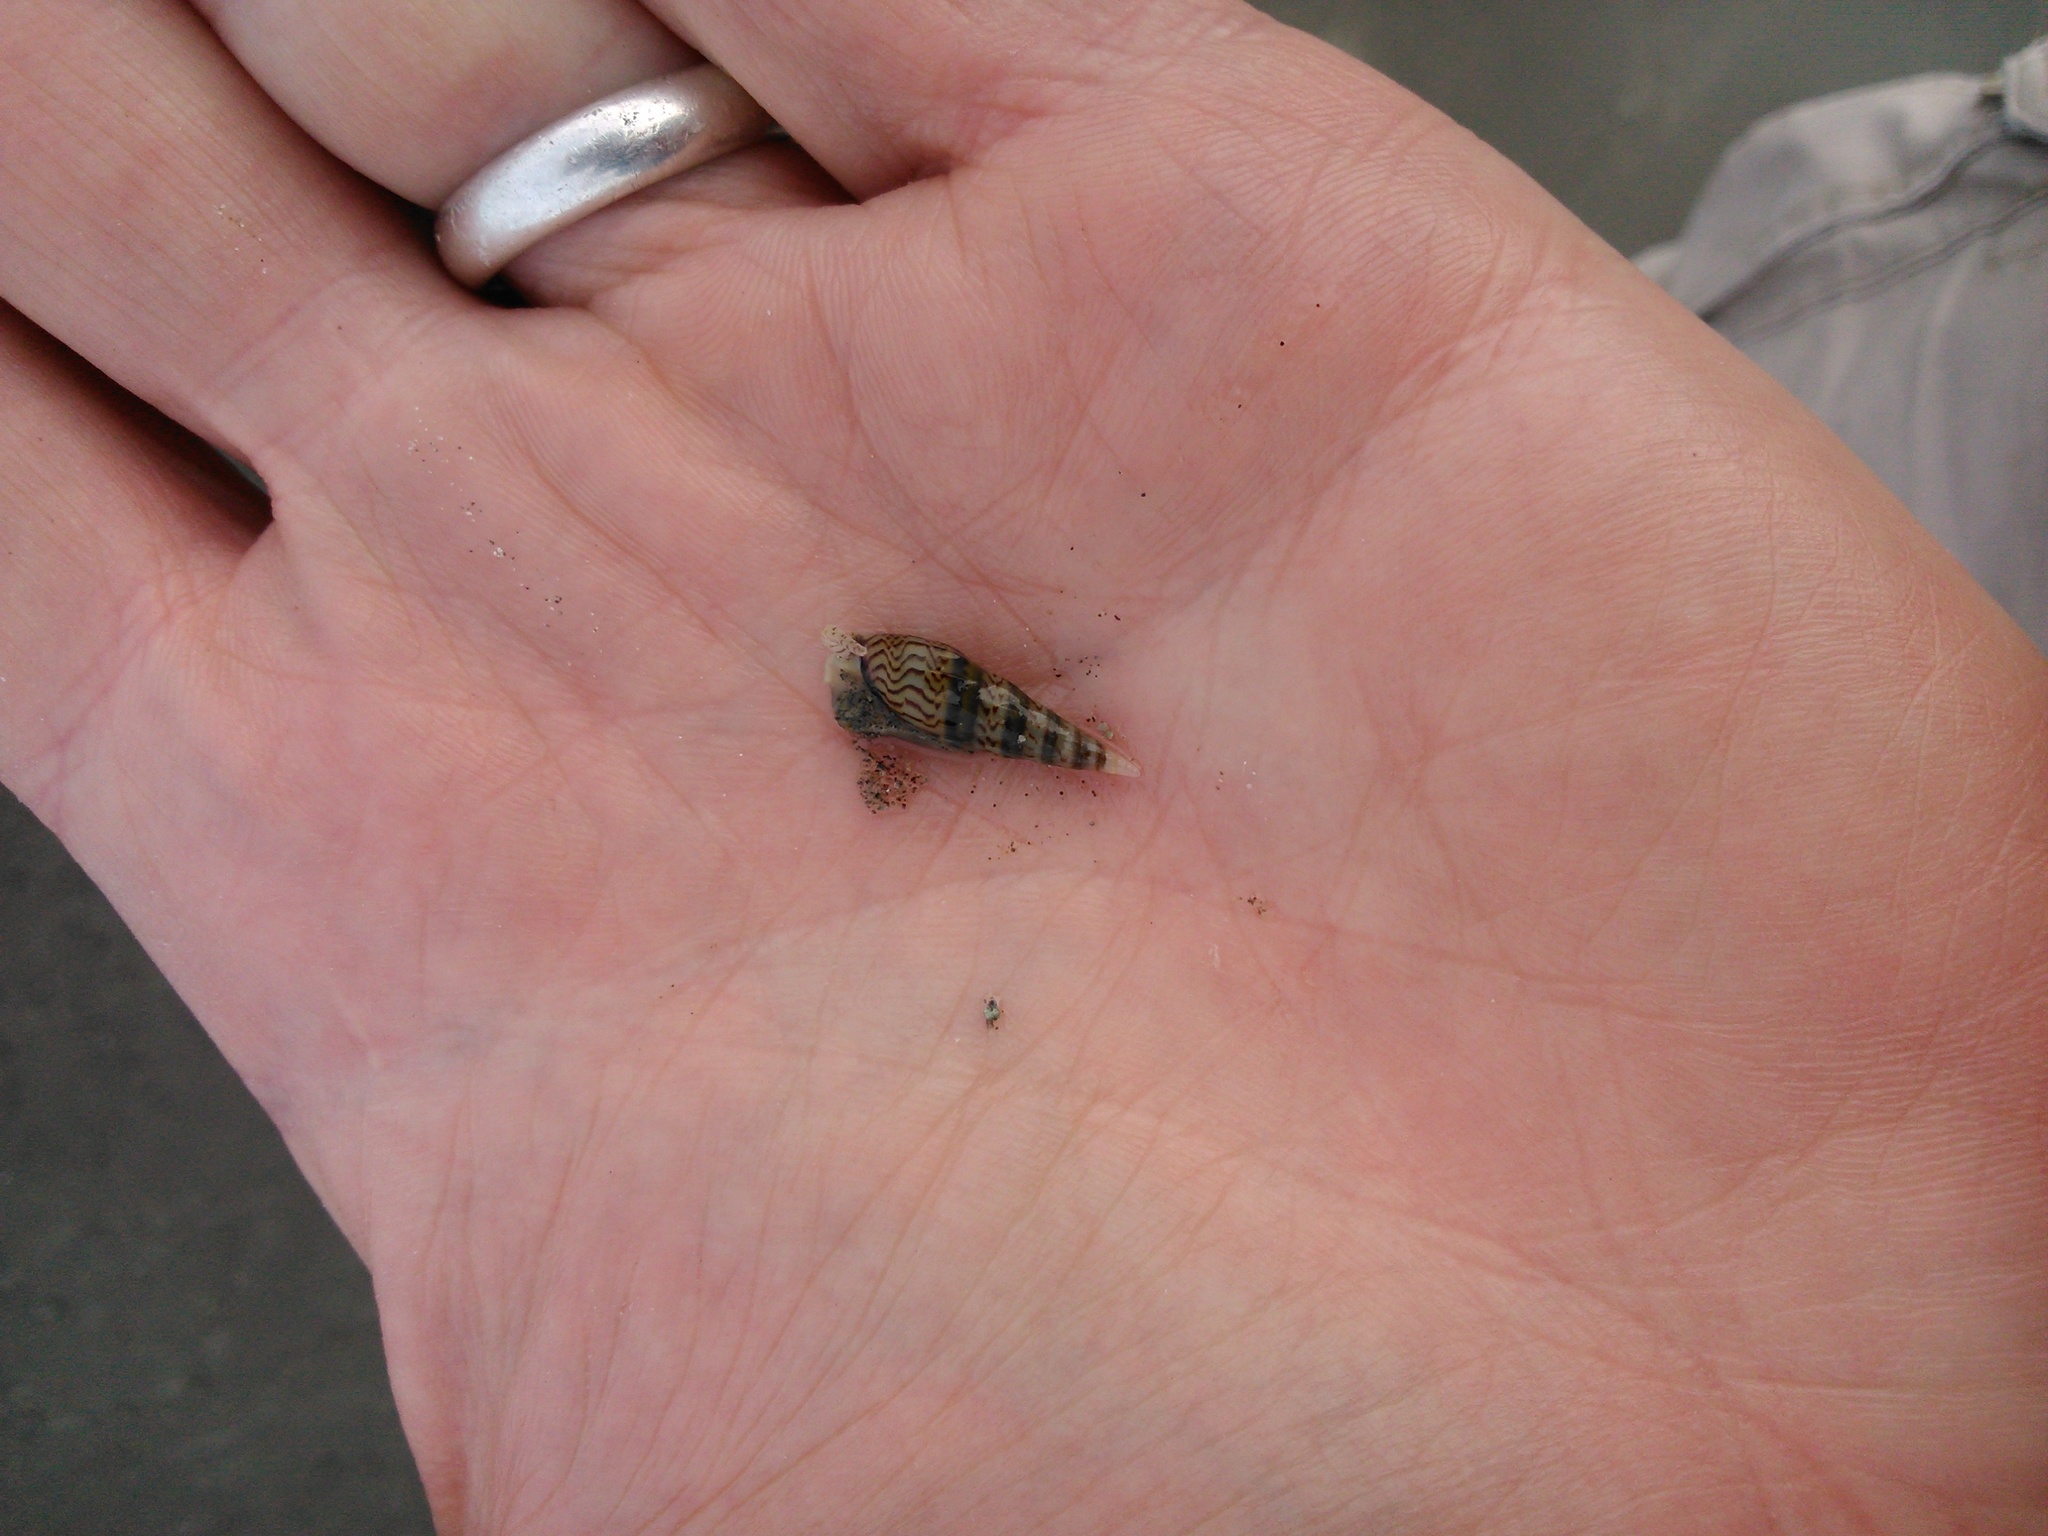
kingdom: Animalia
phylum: Mollusca
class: Gastropoda
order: Neogastropoda
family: Columbellidae
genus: Mazatlania
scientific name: Mazatlania fulgurata
